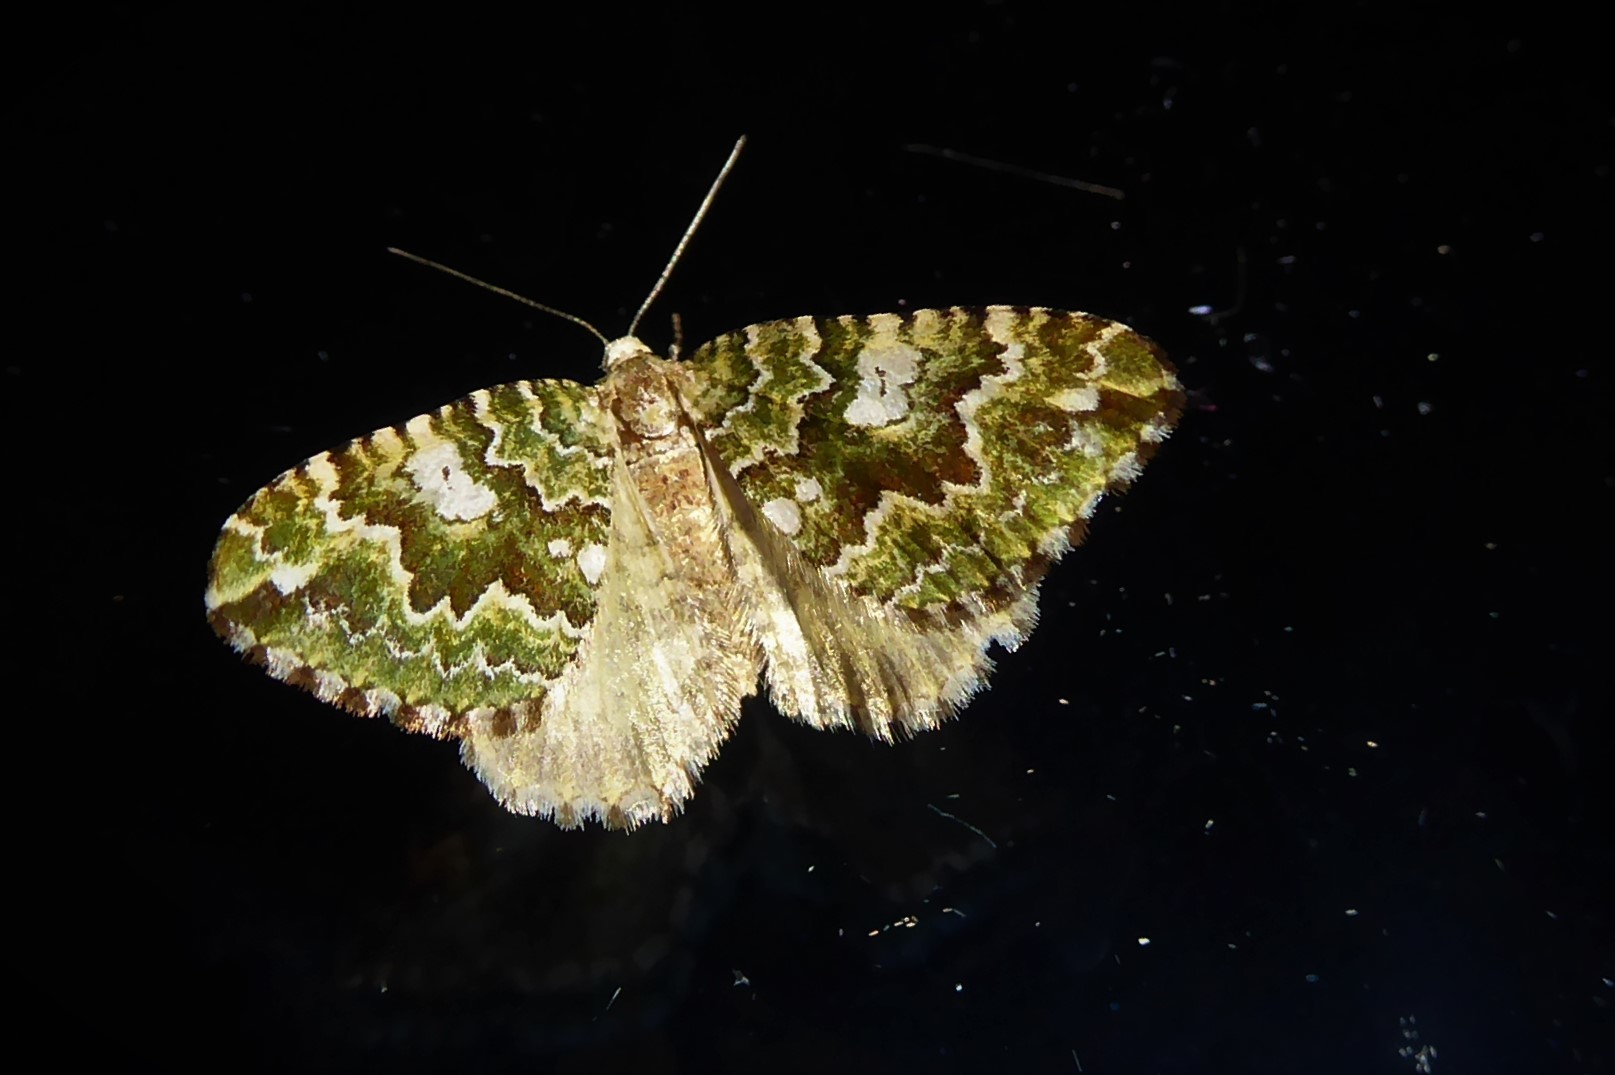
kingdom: Animalia
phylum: Arthropoda
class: Insecta
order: Lepidoptera
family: Geometridae
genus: Asaphodes
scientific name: Asaphodes beata
